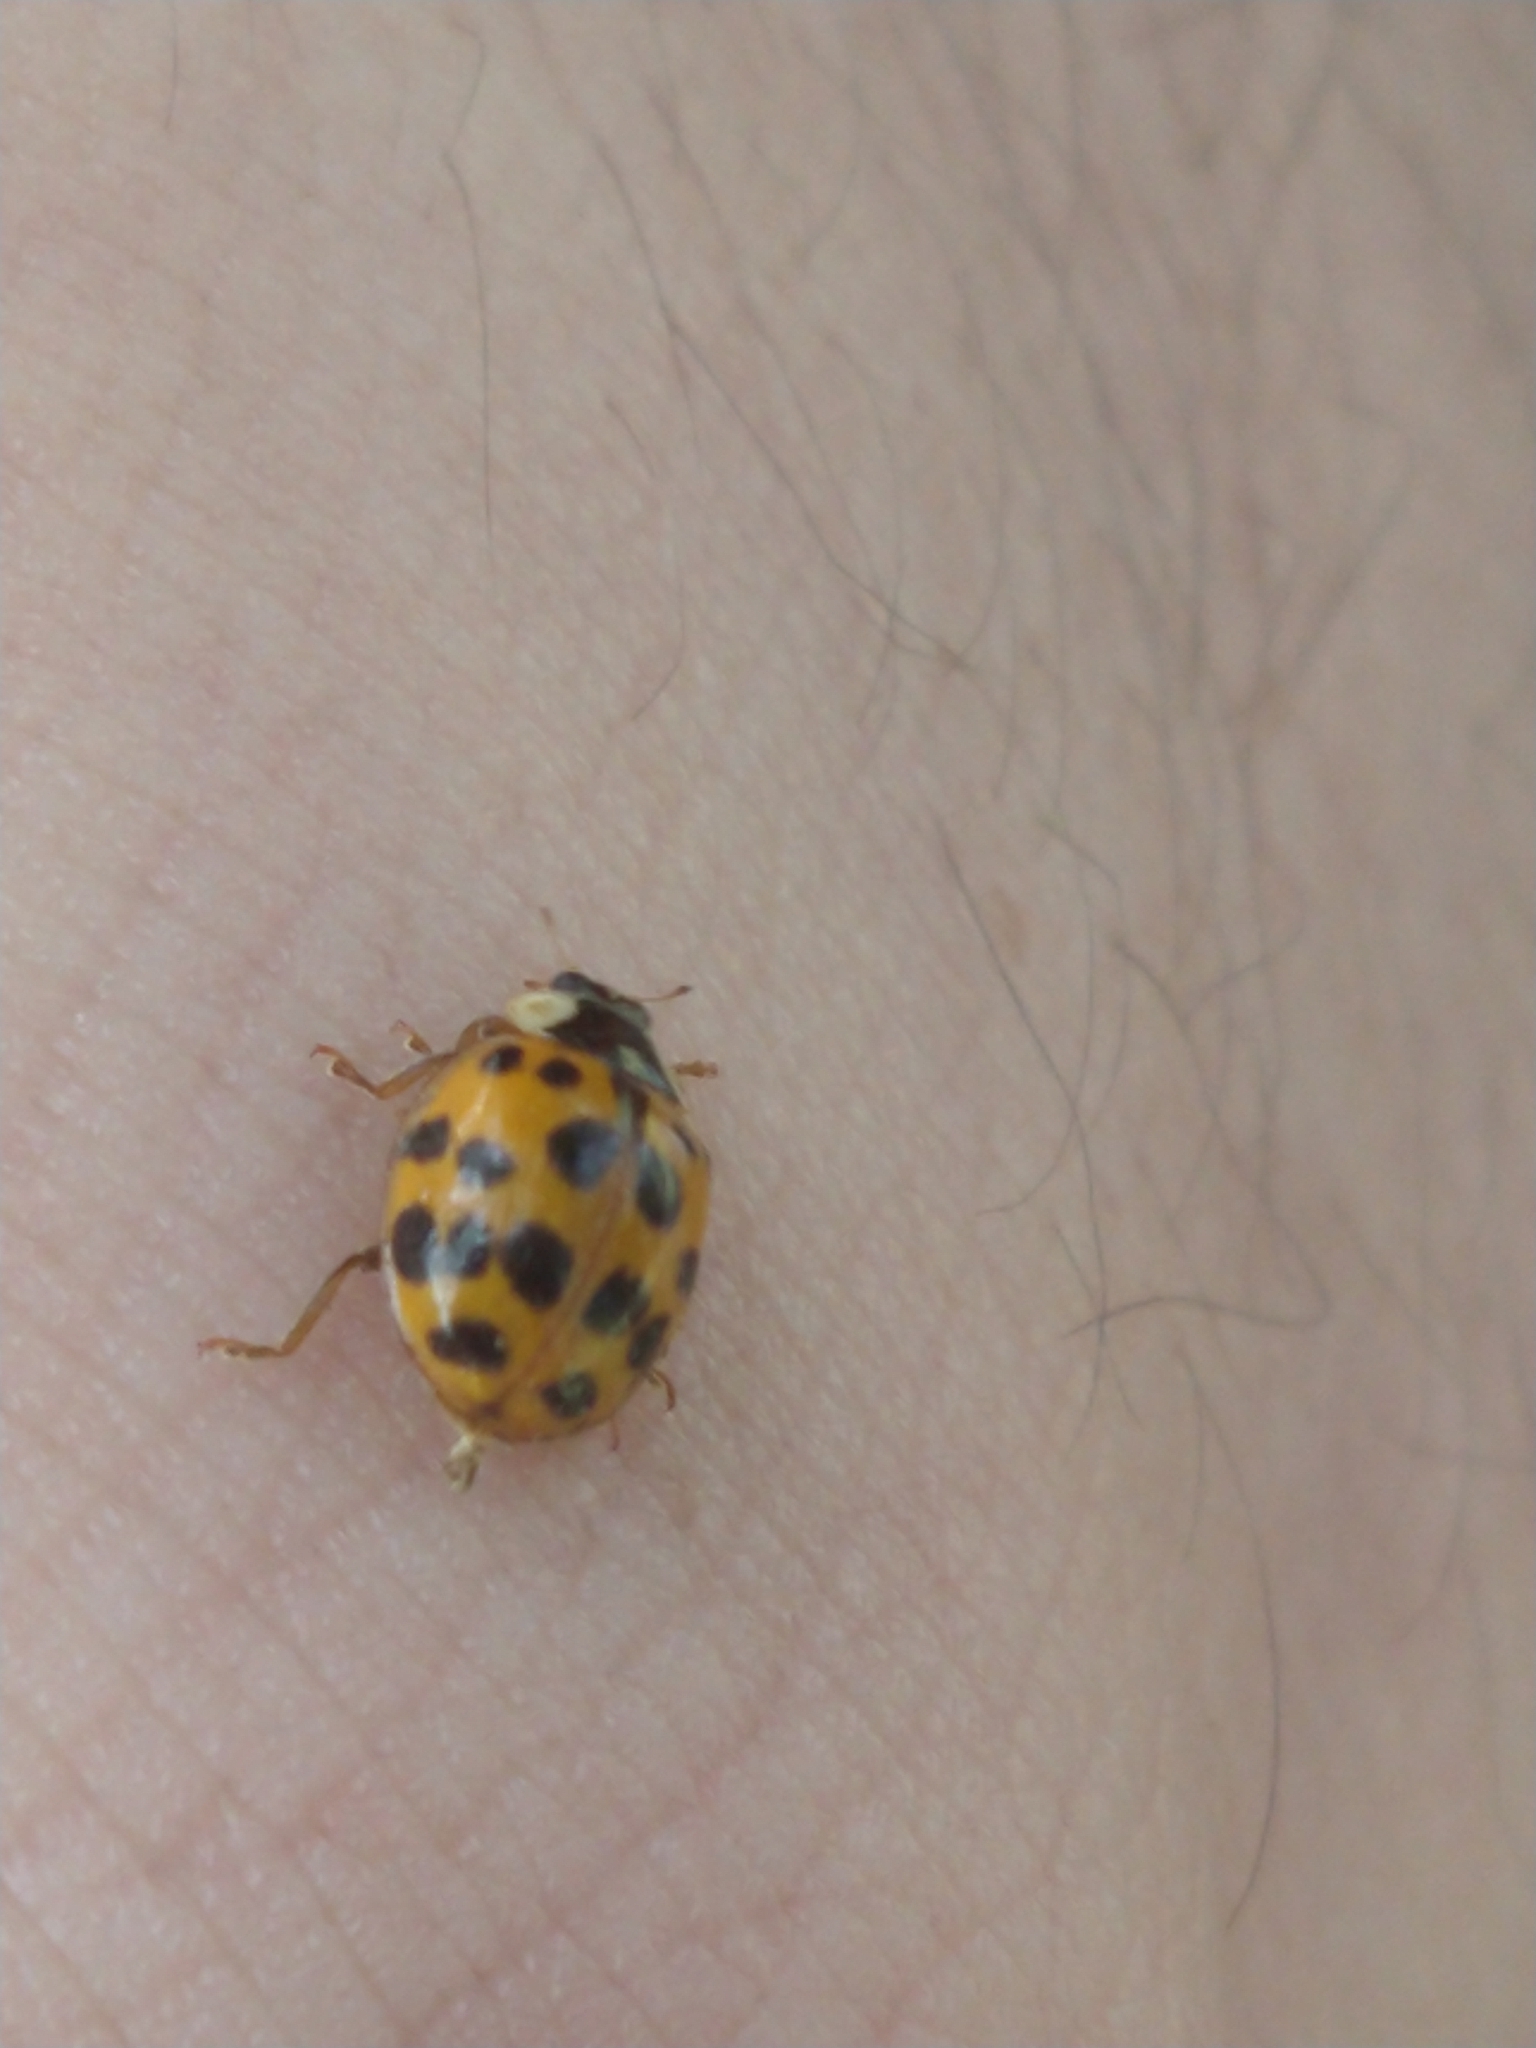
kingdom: Animalia
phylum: Arthropoda
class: Insecta
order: Coleoptera
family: Coccinellidae
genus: Harmonia
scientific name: Harmonia axyridis
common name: Harlequin ladybird
